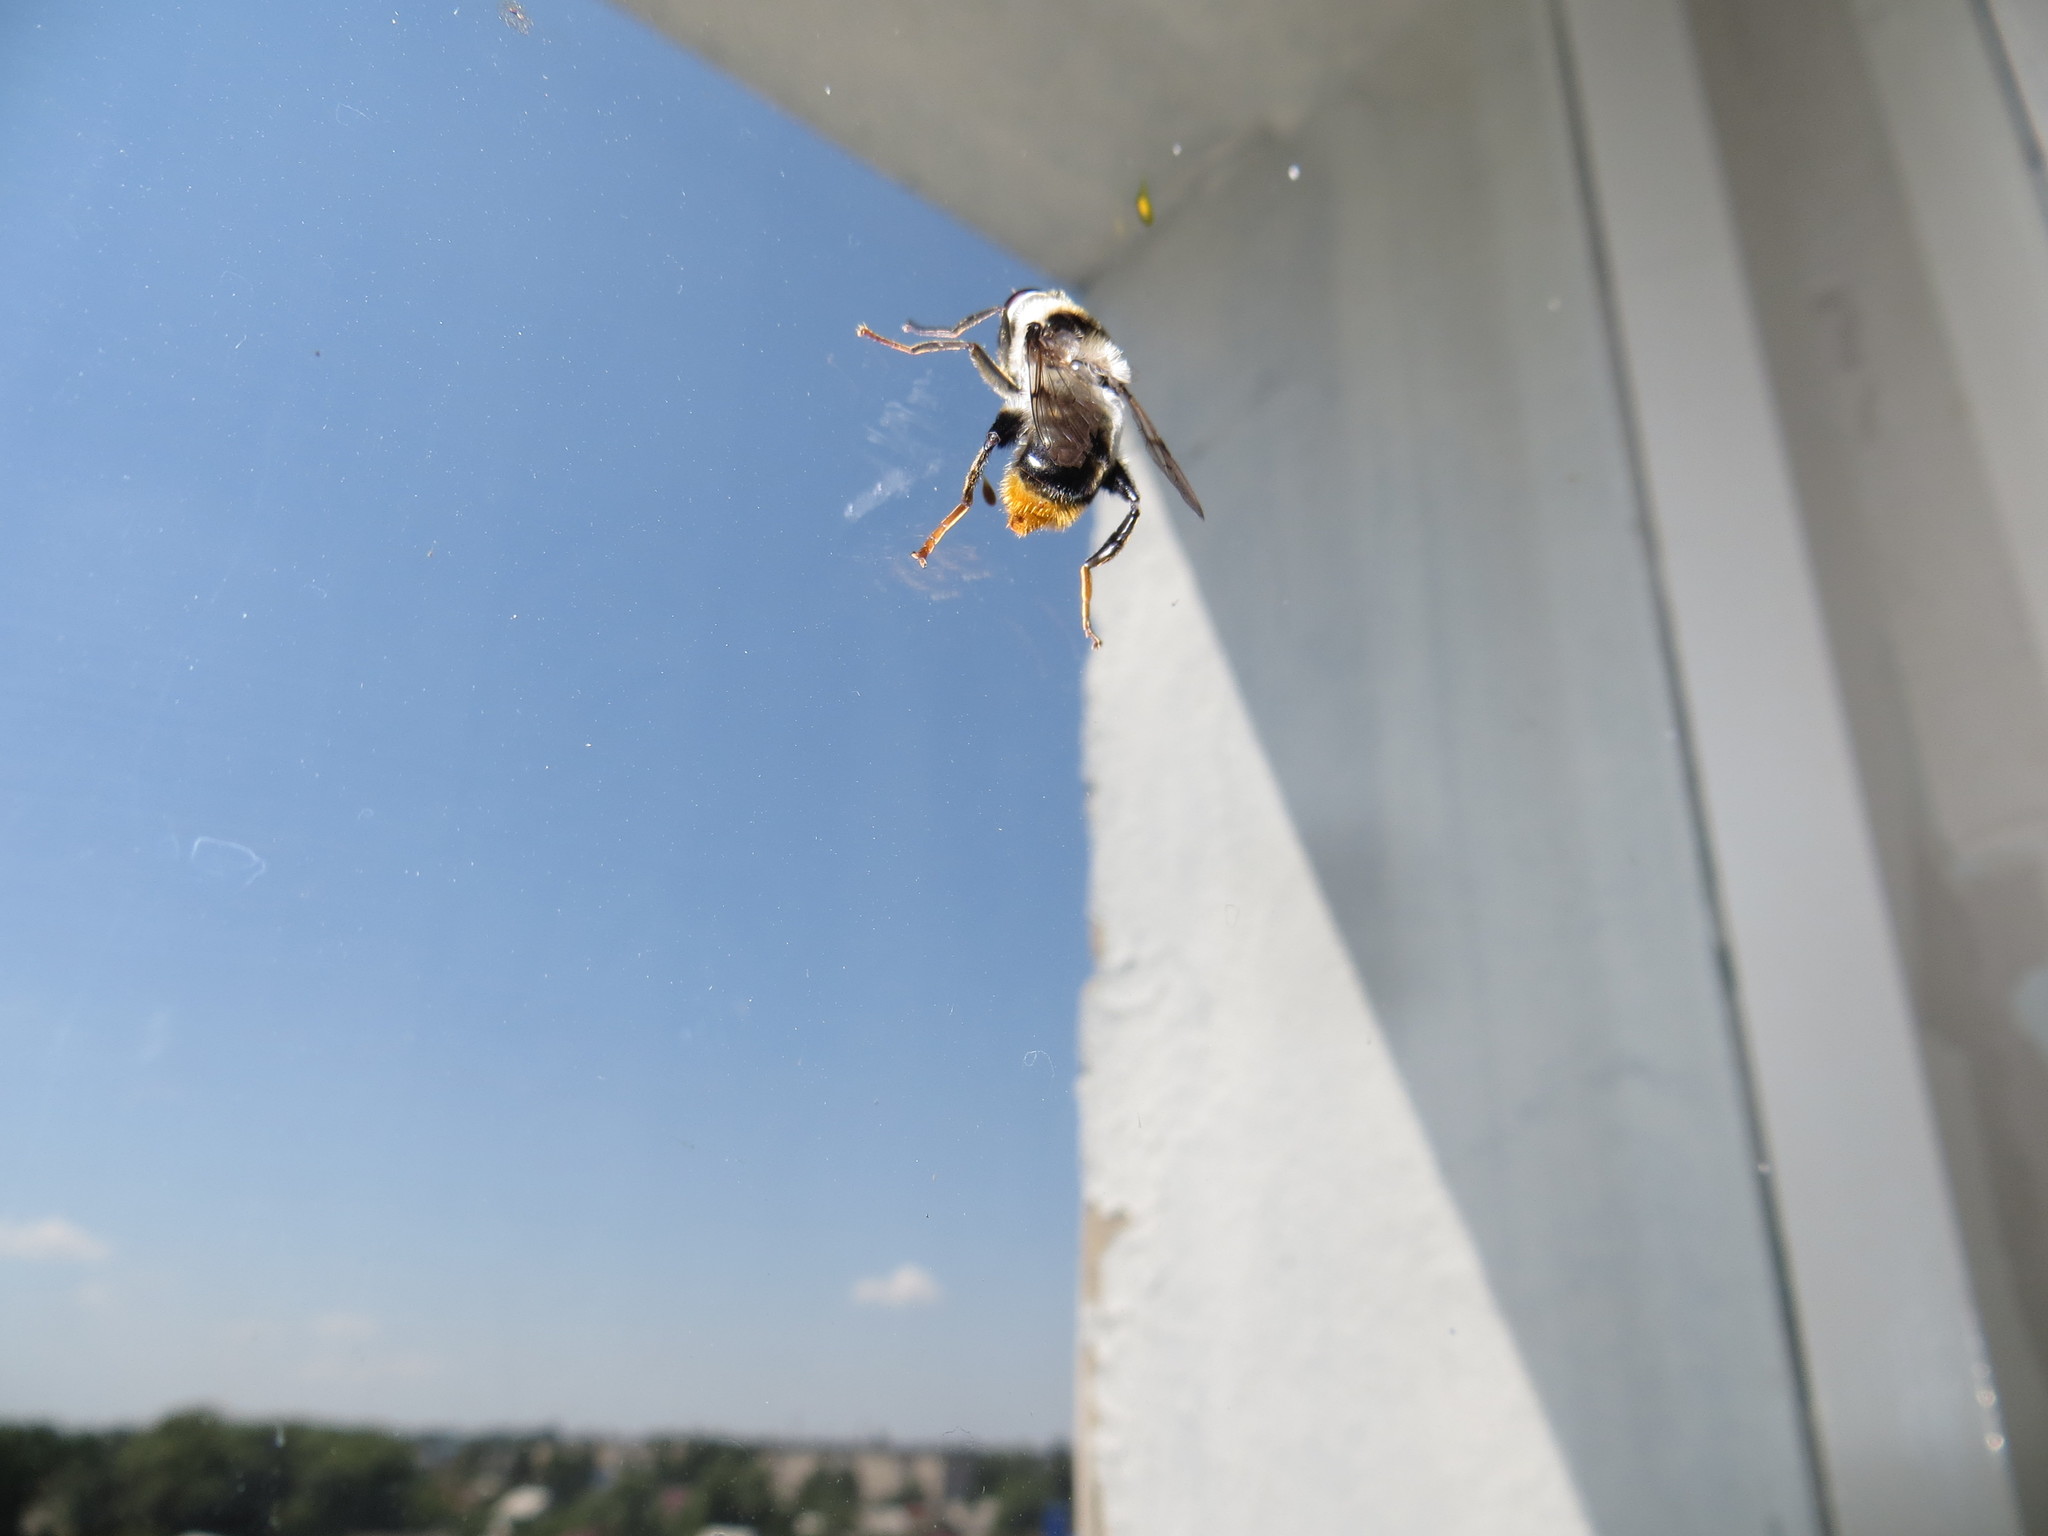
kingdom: Animalia
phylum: Arthropoda
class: Insecta
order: Diptera
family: Syrphidae
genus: Mallota
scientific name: Mallota tricolor
